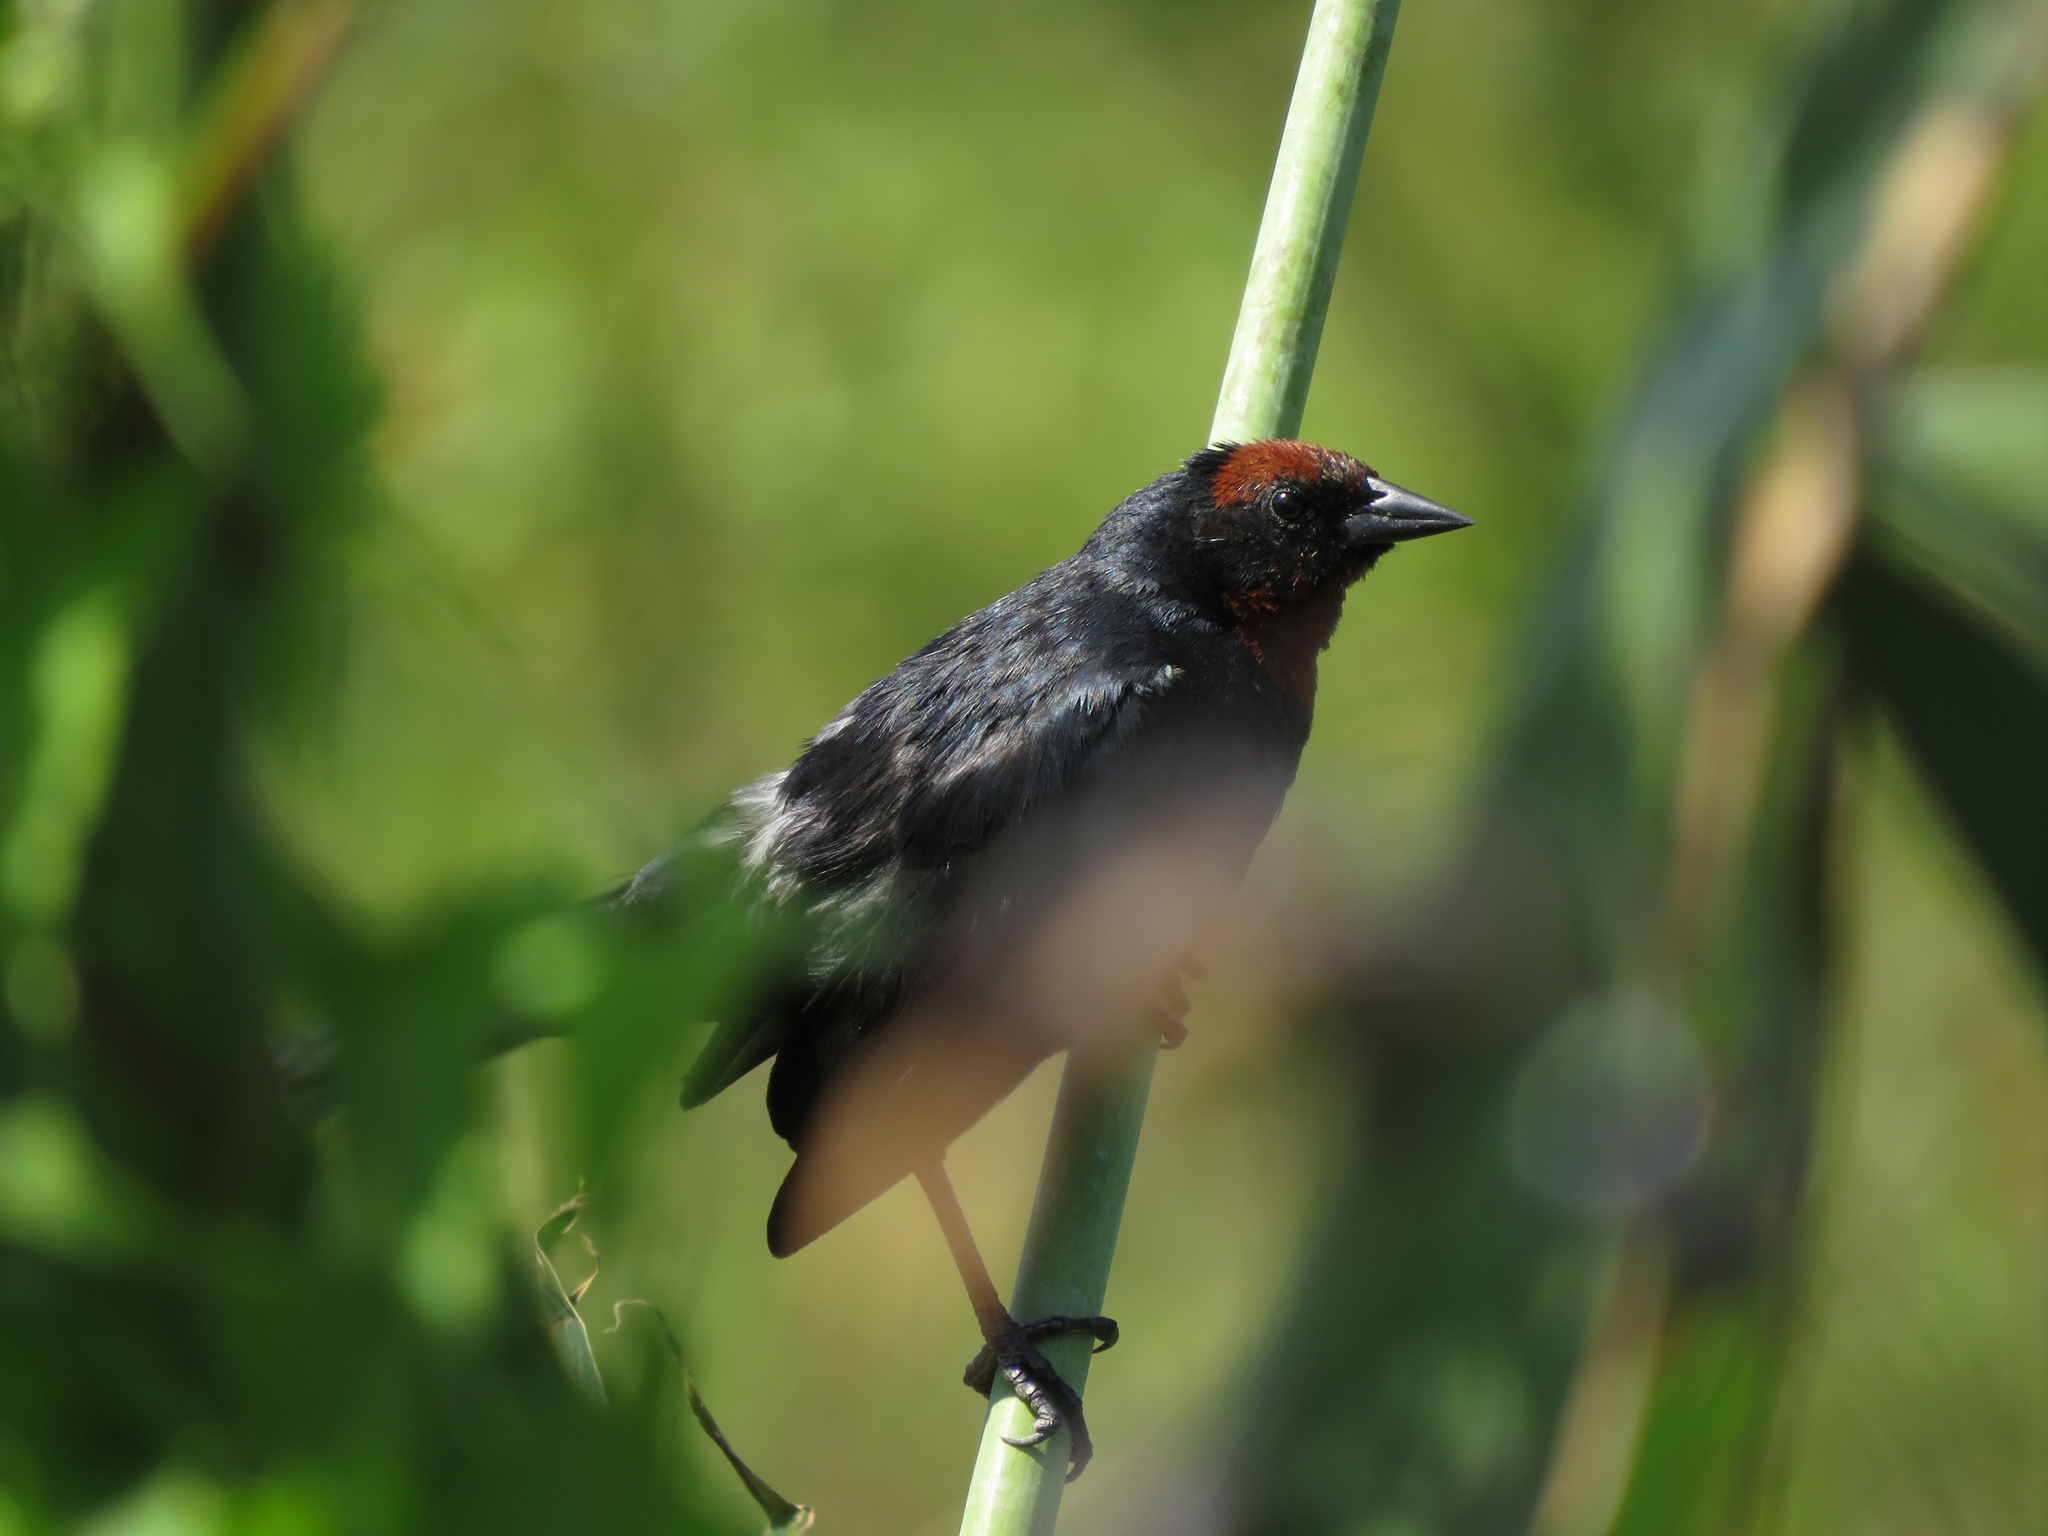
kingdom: Animalia
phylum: Chordata
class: Aves
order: Passeriformes
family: Icteridae
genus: Chrysomus
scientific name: Chrysomus ruficapillus
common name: Chestnut-capped blackbird
